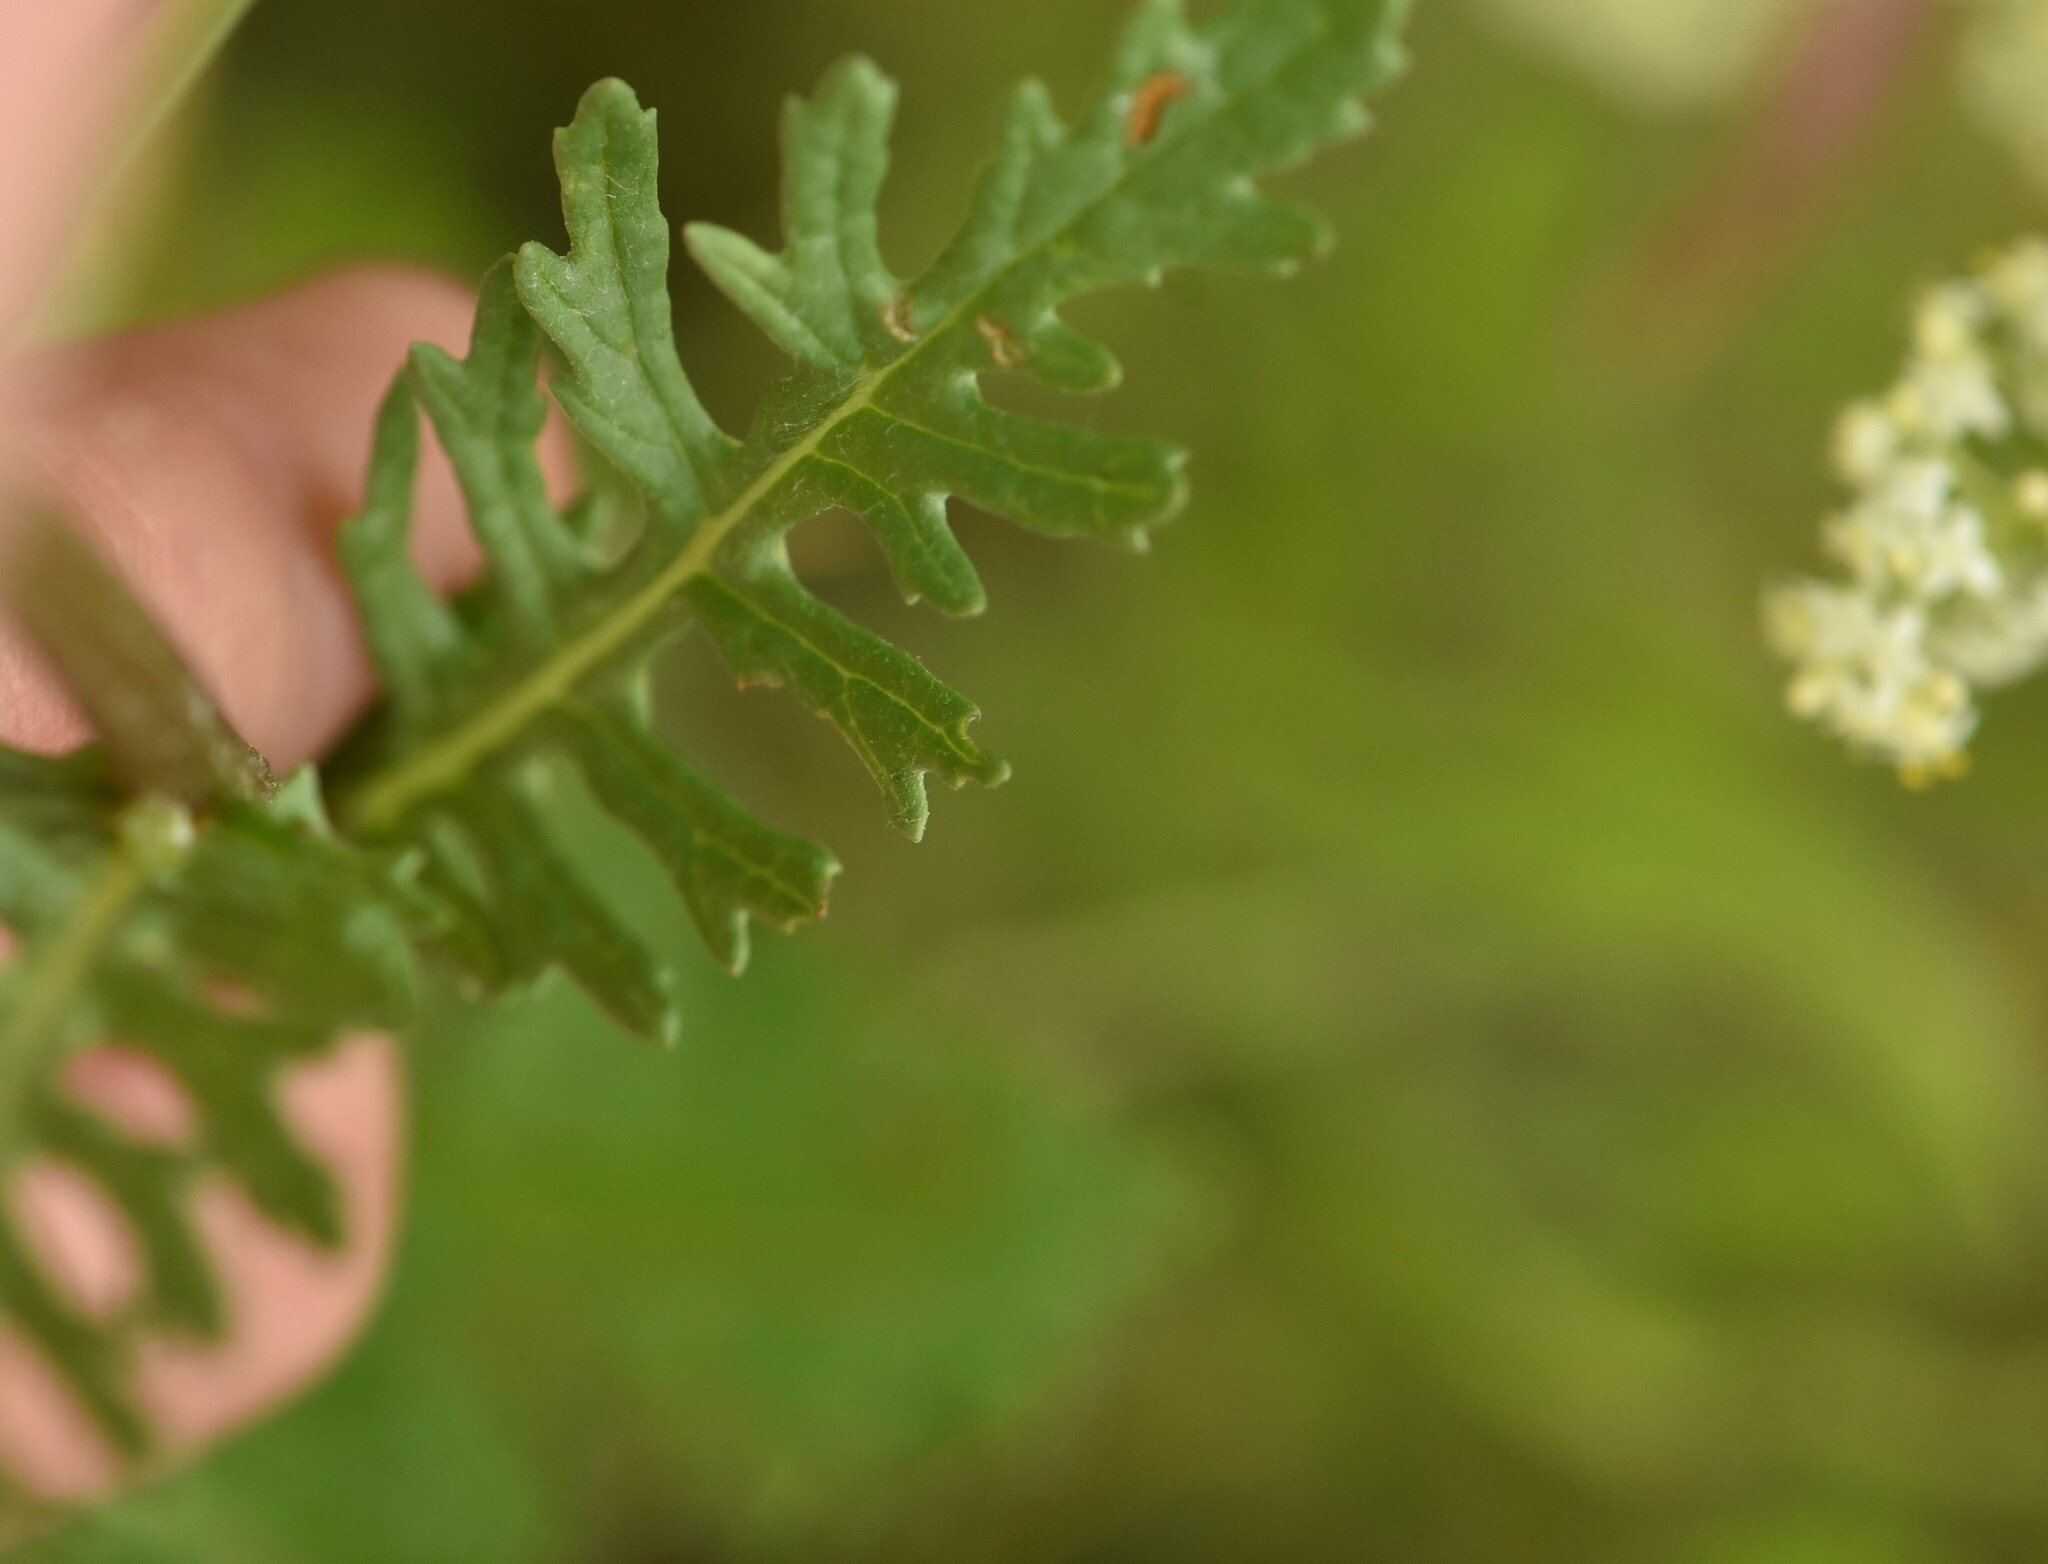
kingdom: Plantae
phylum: Tracheophyta
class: Magnoliopsida
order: Asterales
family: Asteraceae
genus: Jacobaea
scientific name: Jacobaea vulgaris
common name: Stinking willie
